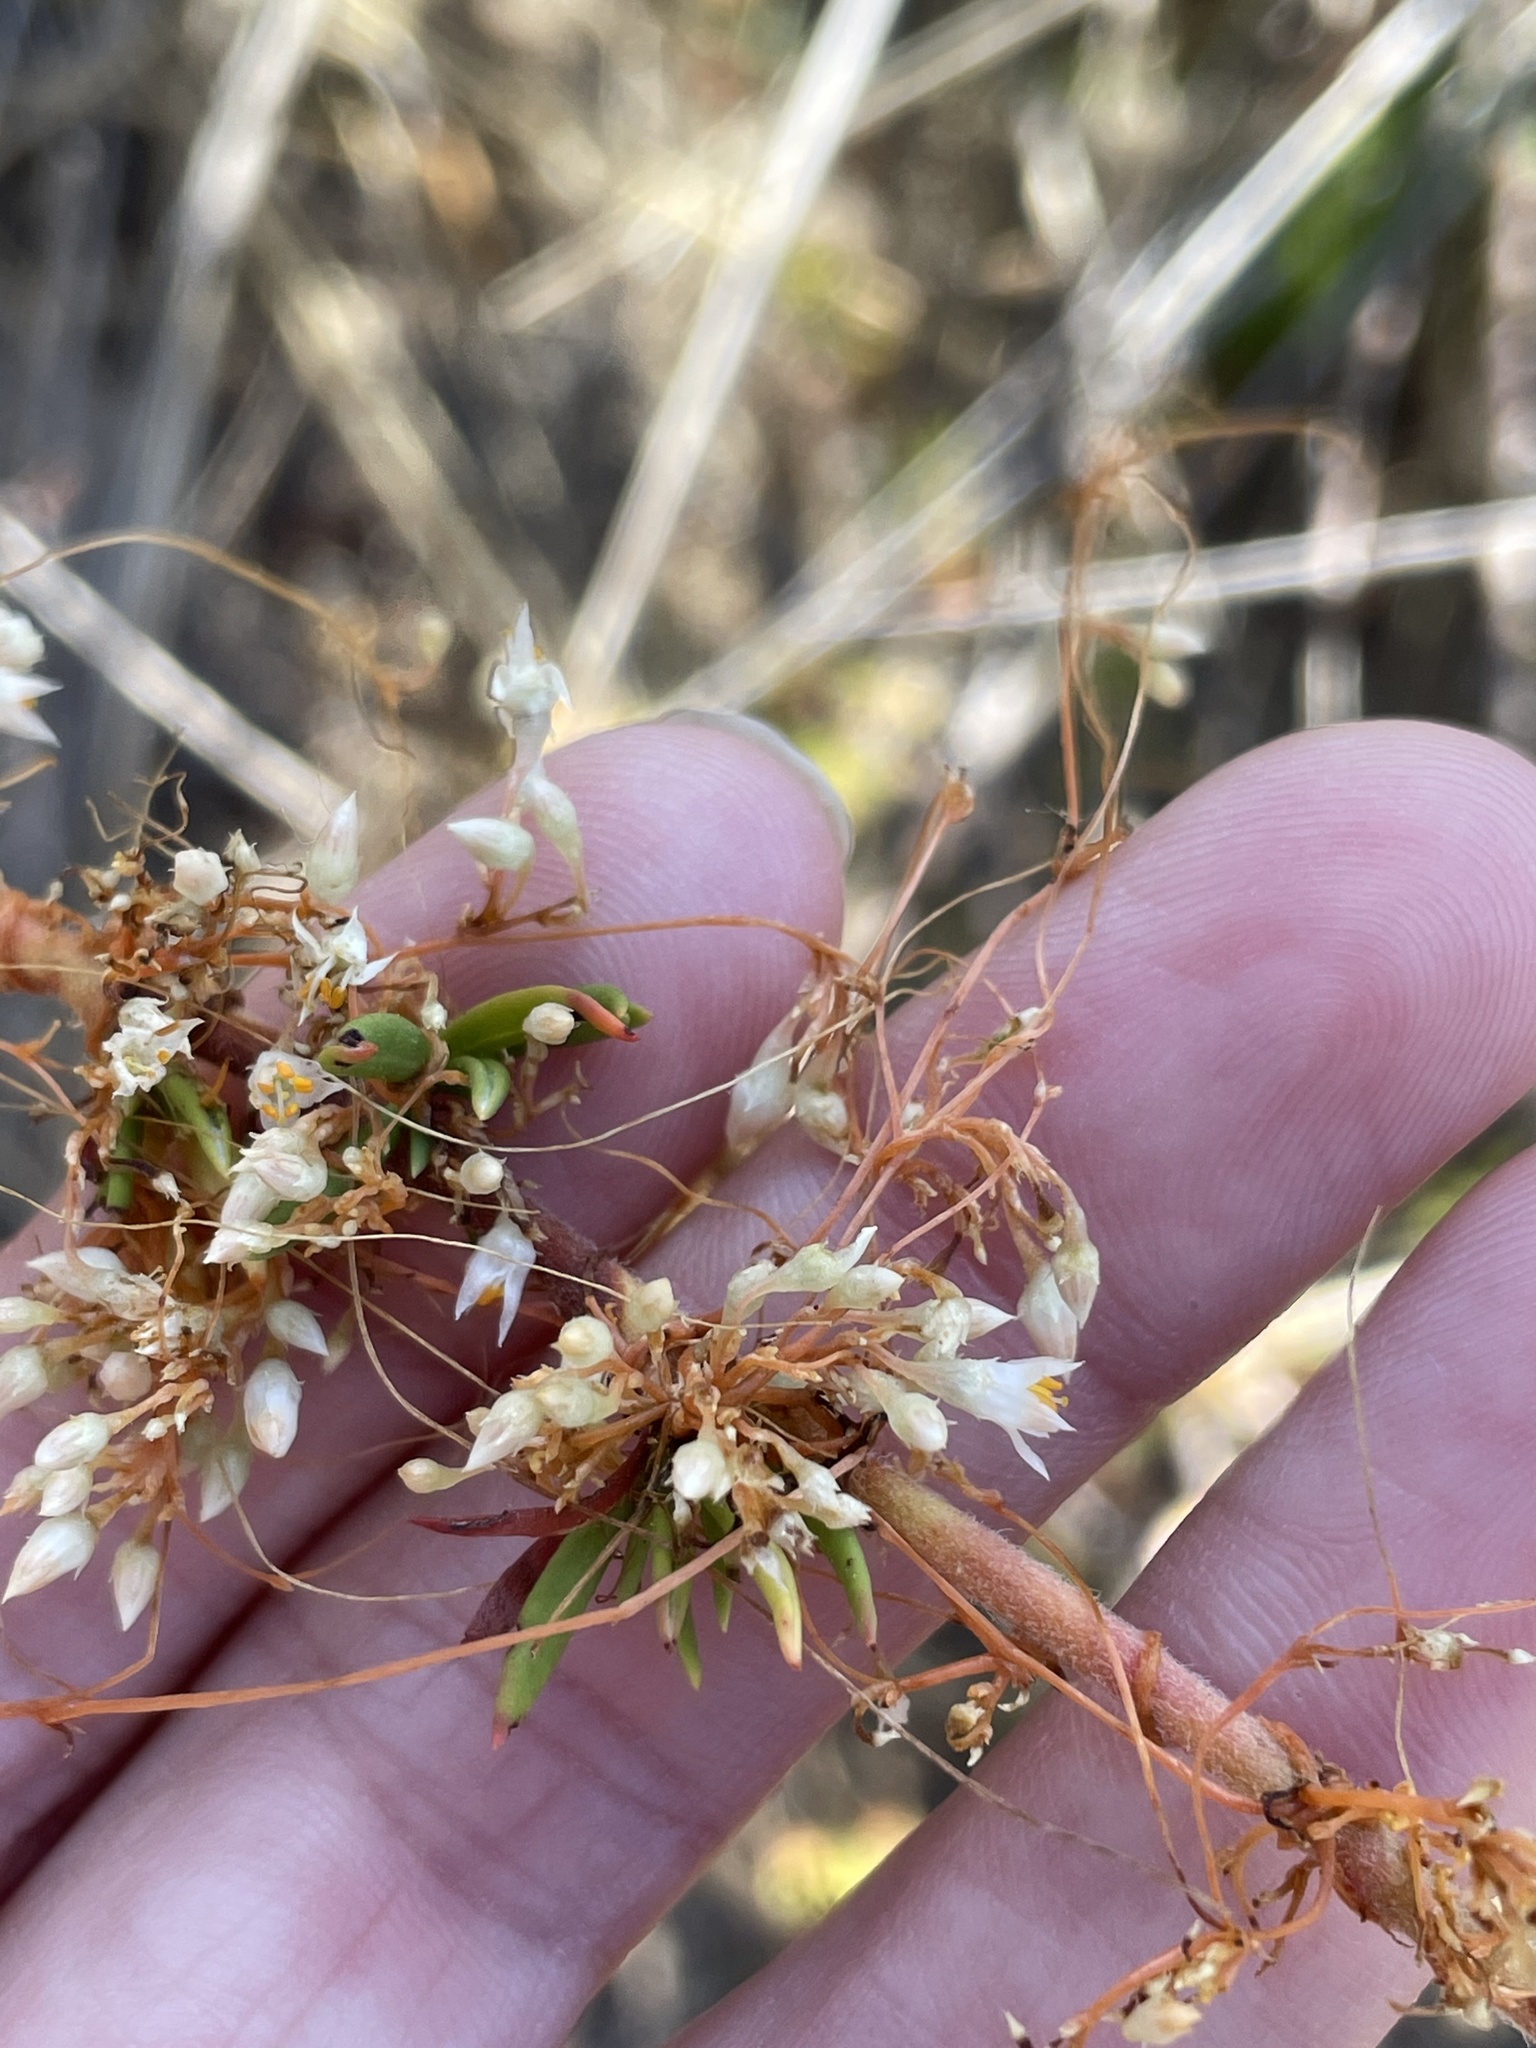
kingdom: Plantae
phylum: Tracheophyta
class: Magnoliopsida
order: Solanales
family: Convolvulaceae
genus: Cuscuta
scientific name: Cuscuta californica
